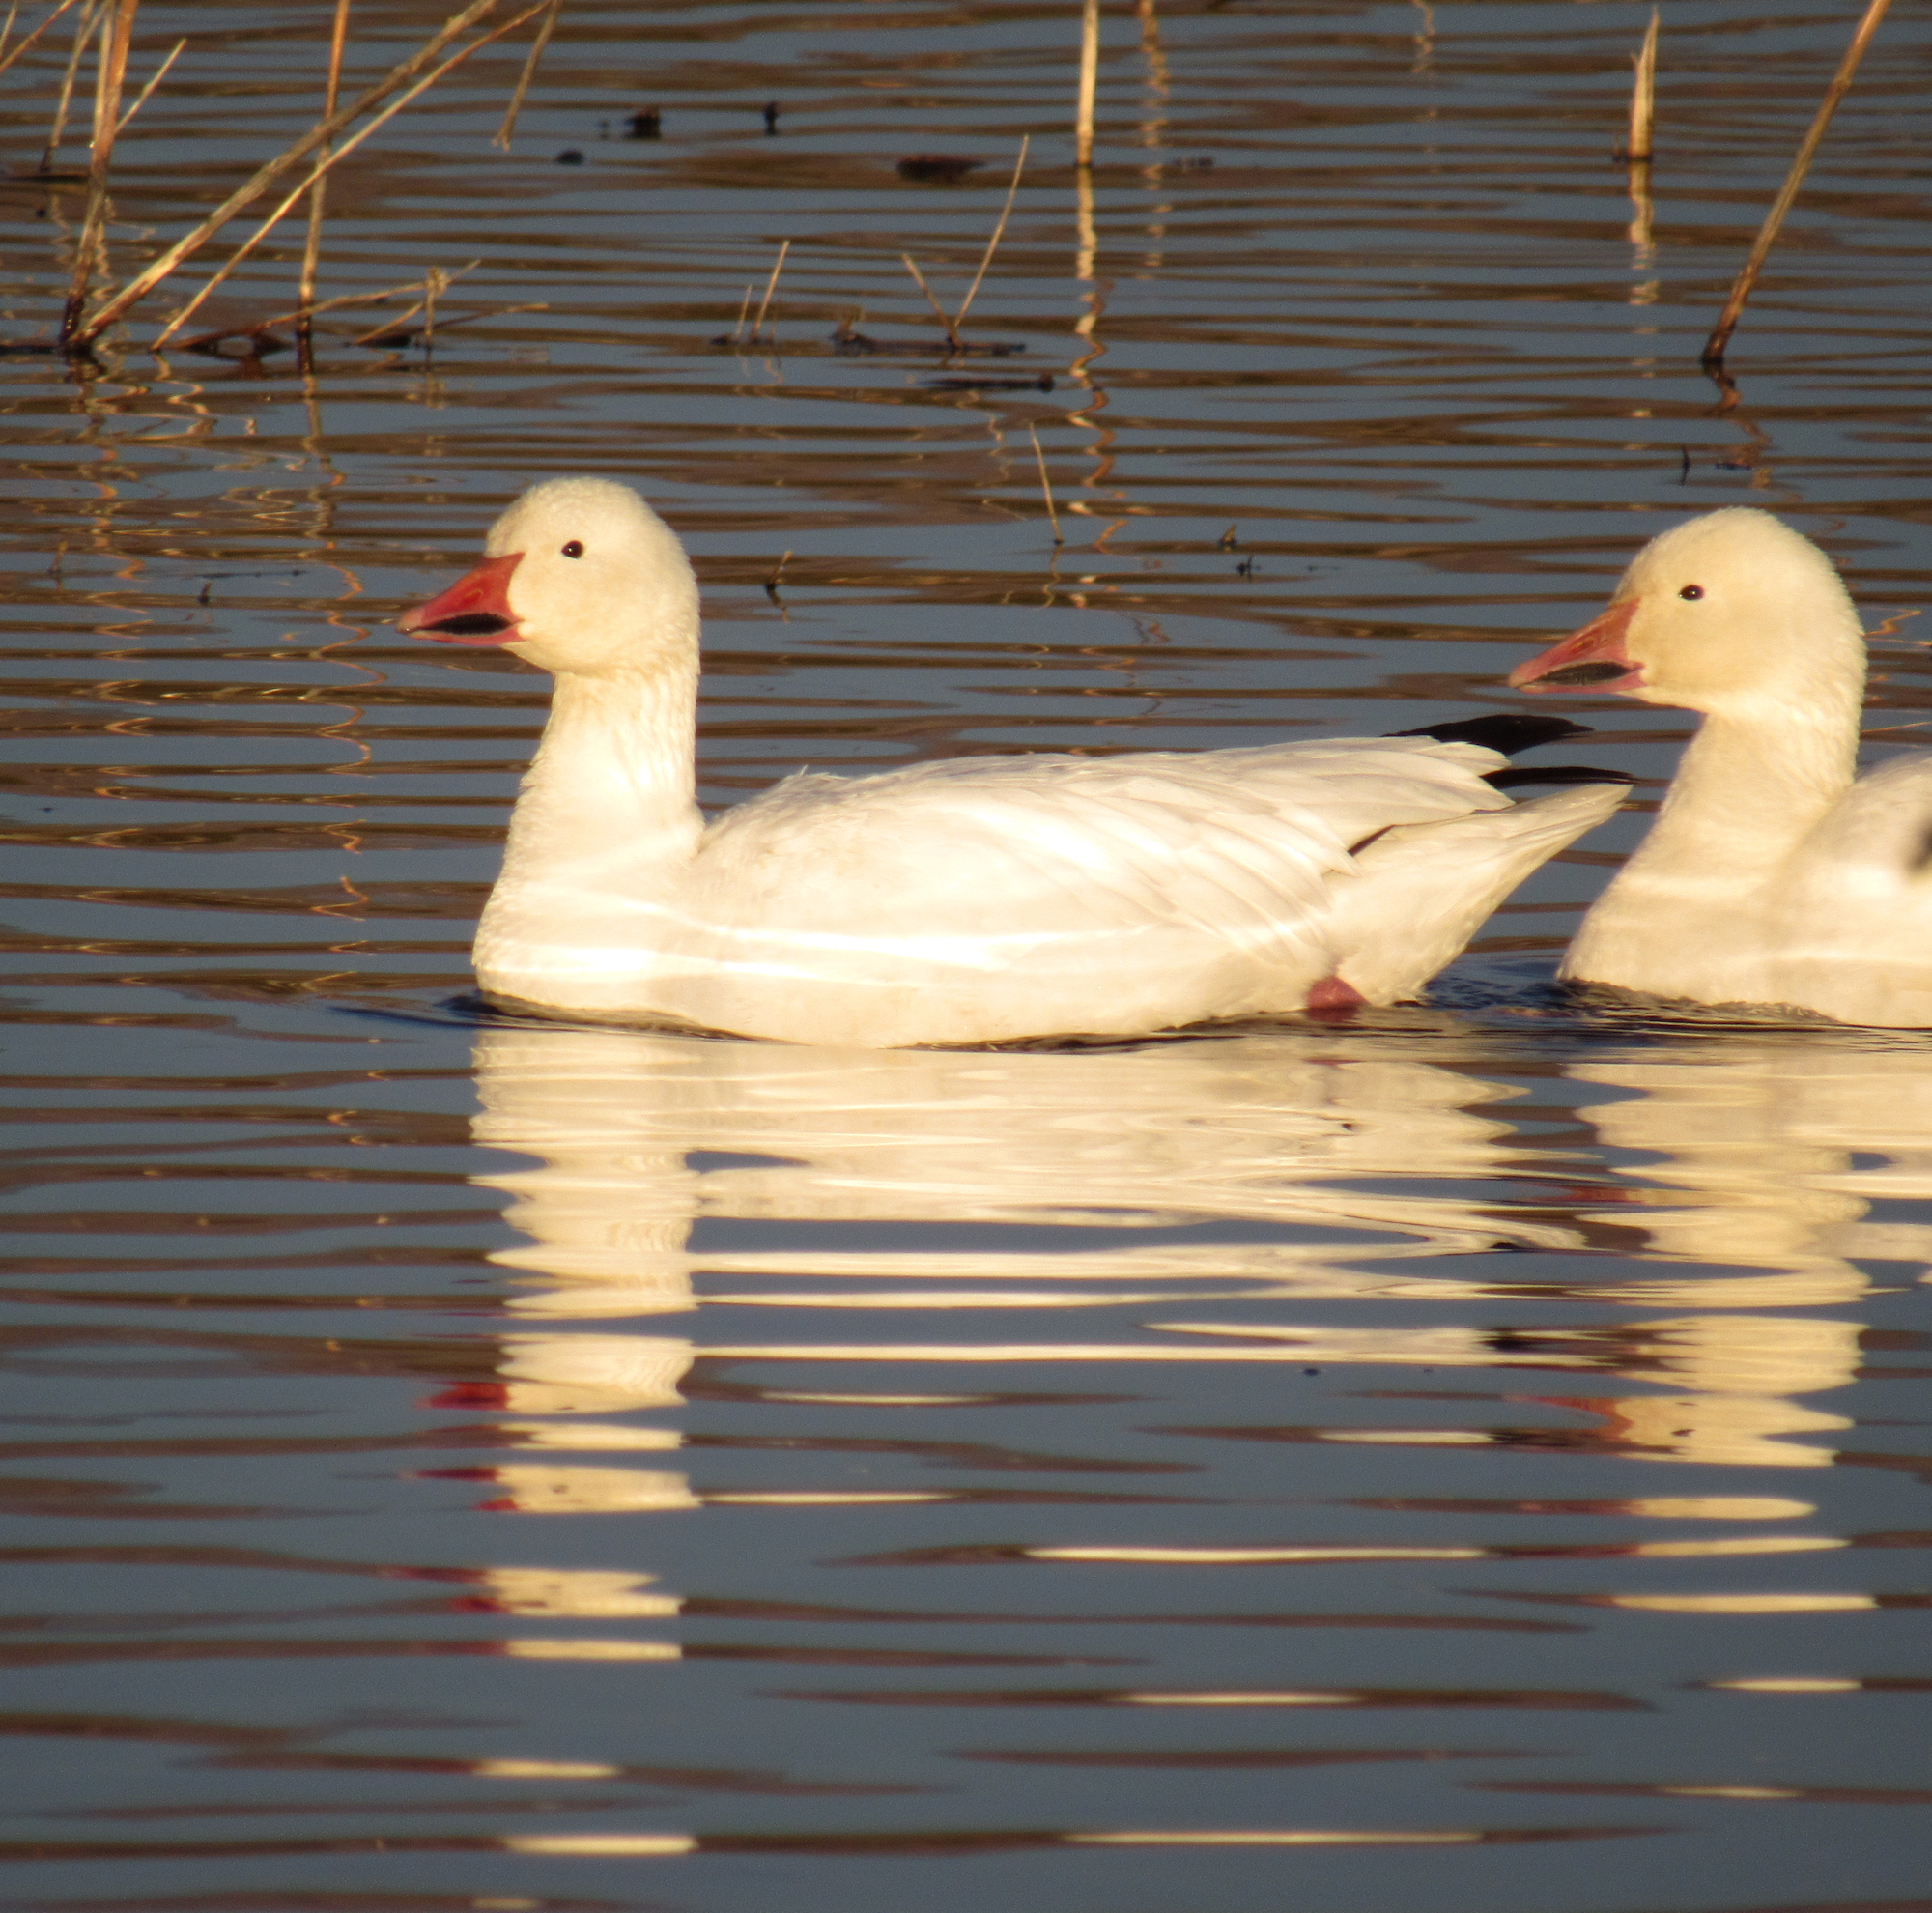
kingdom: Animalia
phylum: Chordata
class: Aves
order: Anseriformes
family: Anatidae
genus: Anser
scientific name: Anser caerulescens
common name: Snow goose
